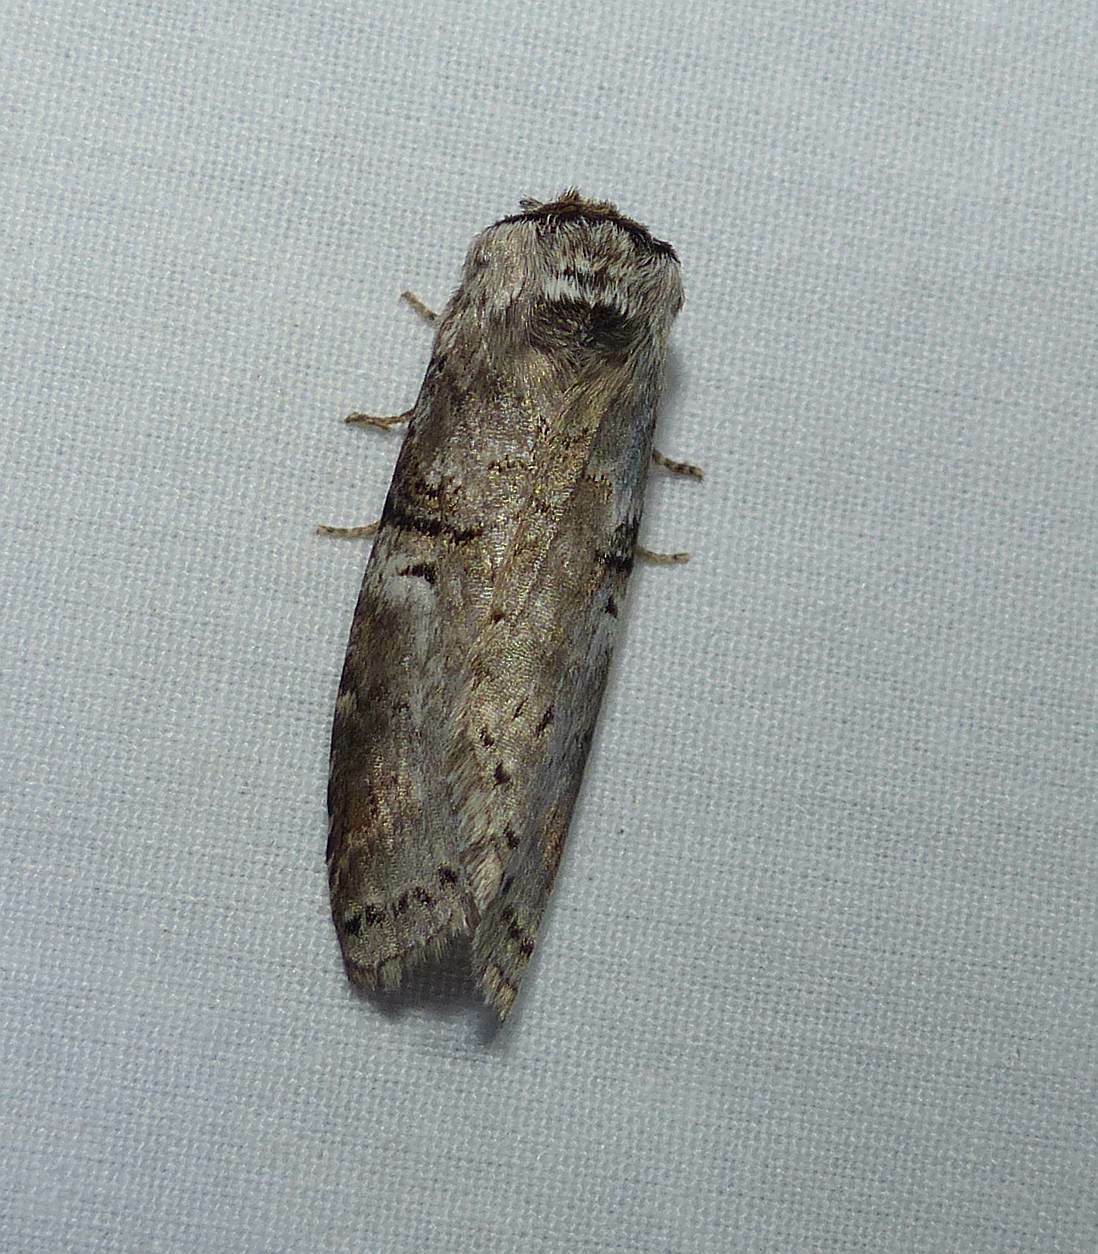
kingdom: Animalia
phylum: Arthropoda
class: Insecta
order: Lepidoptera
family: Notodontidae
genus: Ellida
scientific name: Ellida caniplaga
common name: Linden prominent
